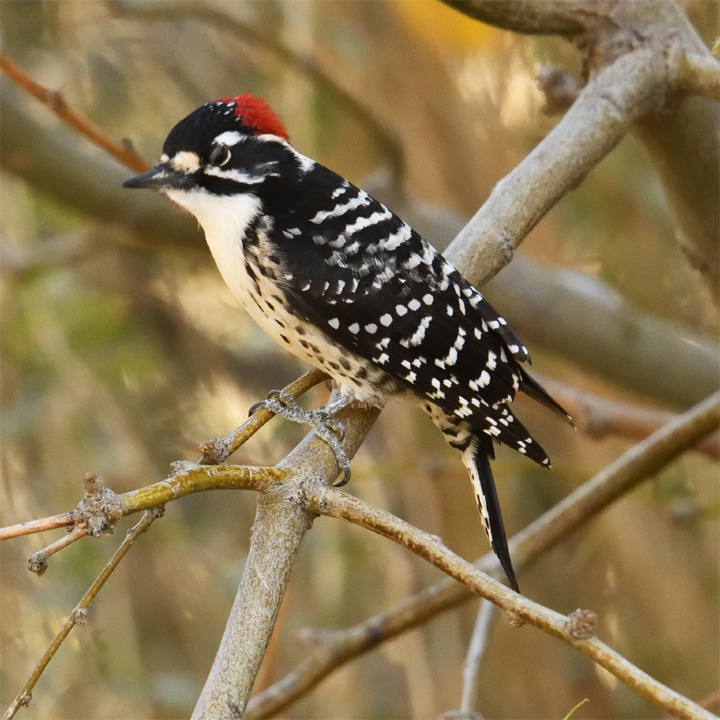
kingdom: Animalia
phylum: Chordata
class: Aves
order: Piciformes
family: Picidae
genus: Dryobates
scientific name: Dryobates nuttallii
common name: Nuttall's woodpecker
